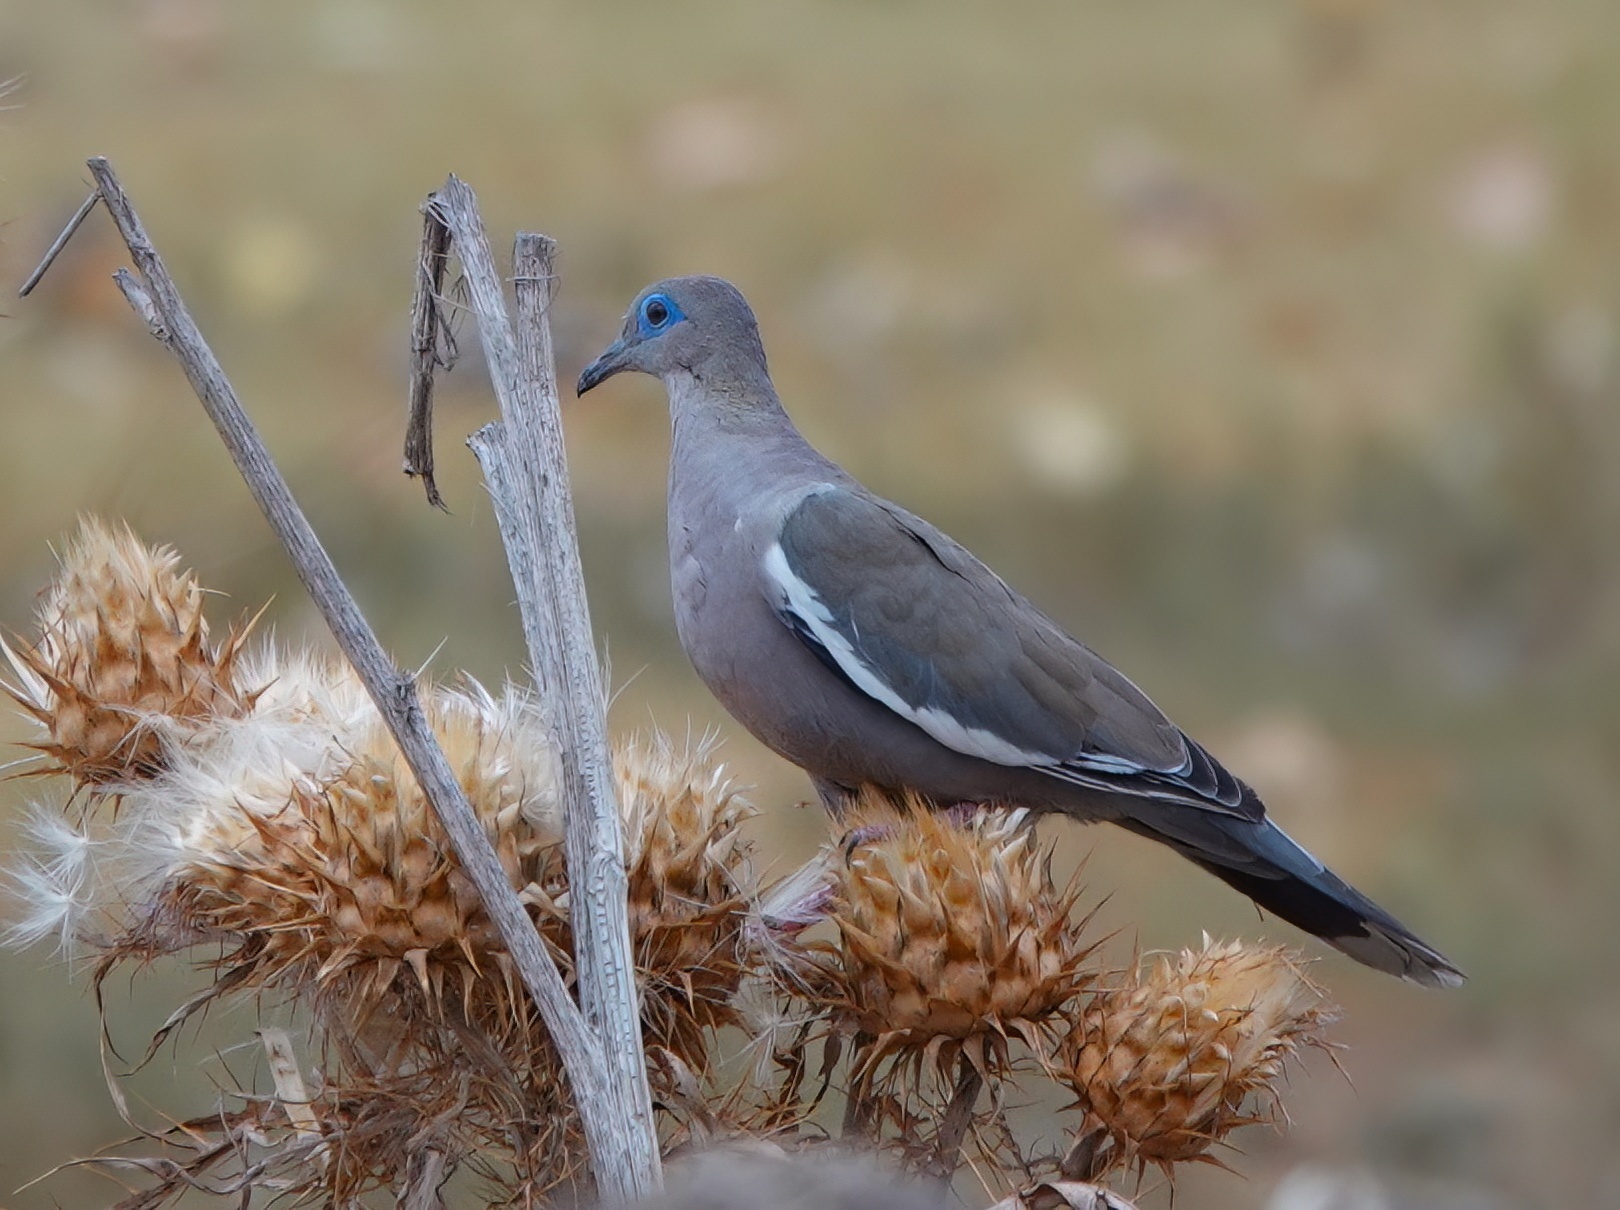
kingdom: Animalia
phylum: Chordata
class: Aves
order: Columbiformes
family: Columbidae
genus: Zenaida
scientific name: Zenaida meloda
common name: West peruvian dove
